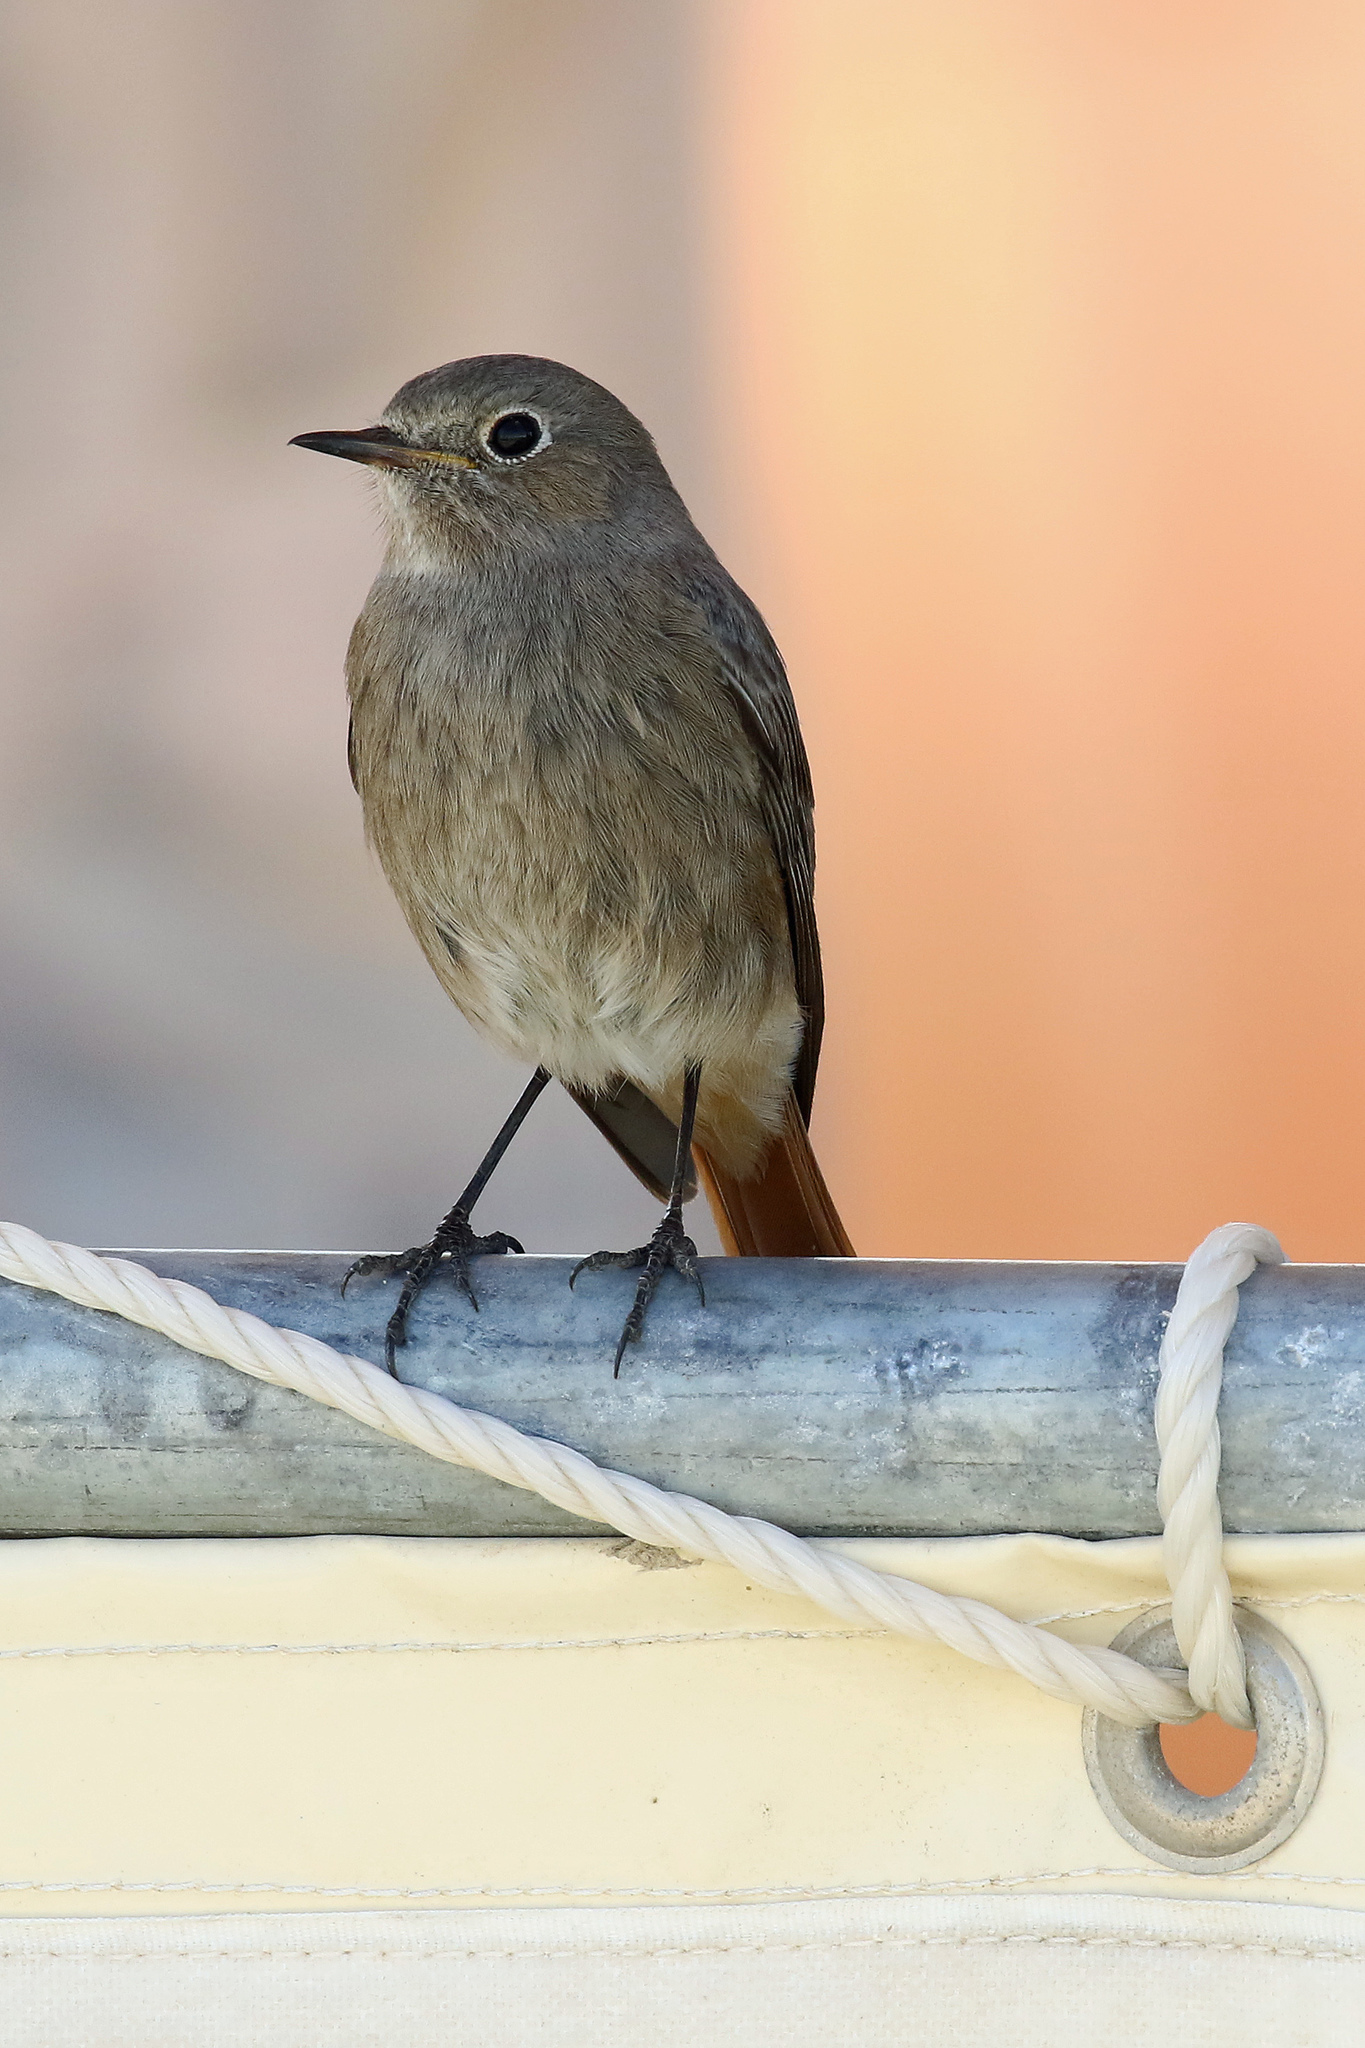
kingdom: Animalia
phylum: Chordata
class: Aves
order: Passeriformes
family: Muscicapidae
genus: Phoenicurus
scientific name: Phoenicurus ochruros
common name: Black redstart
